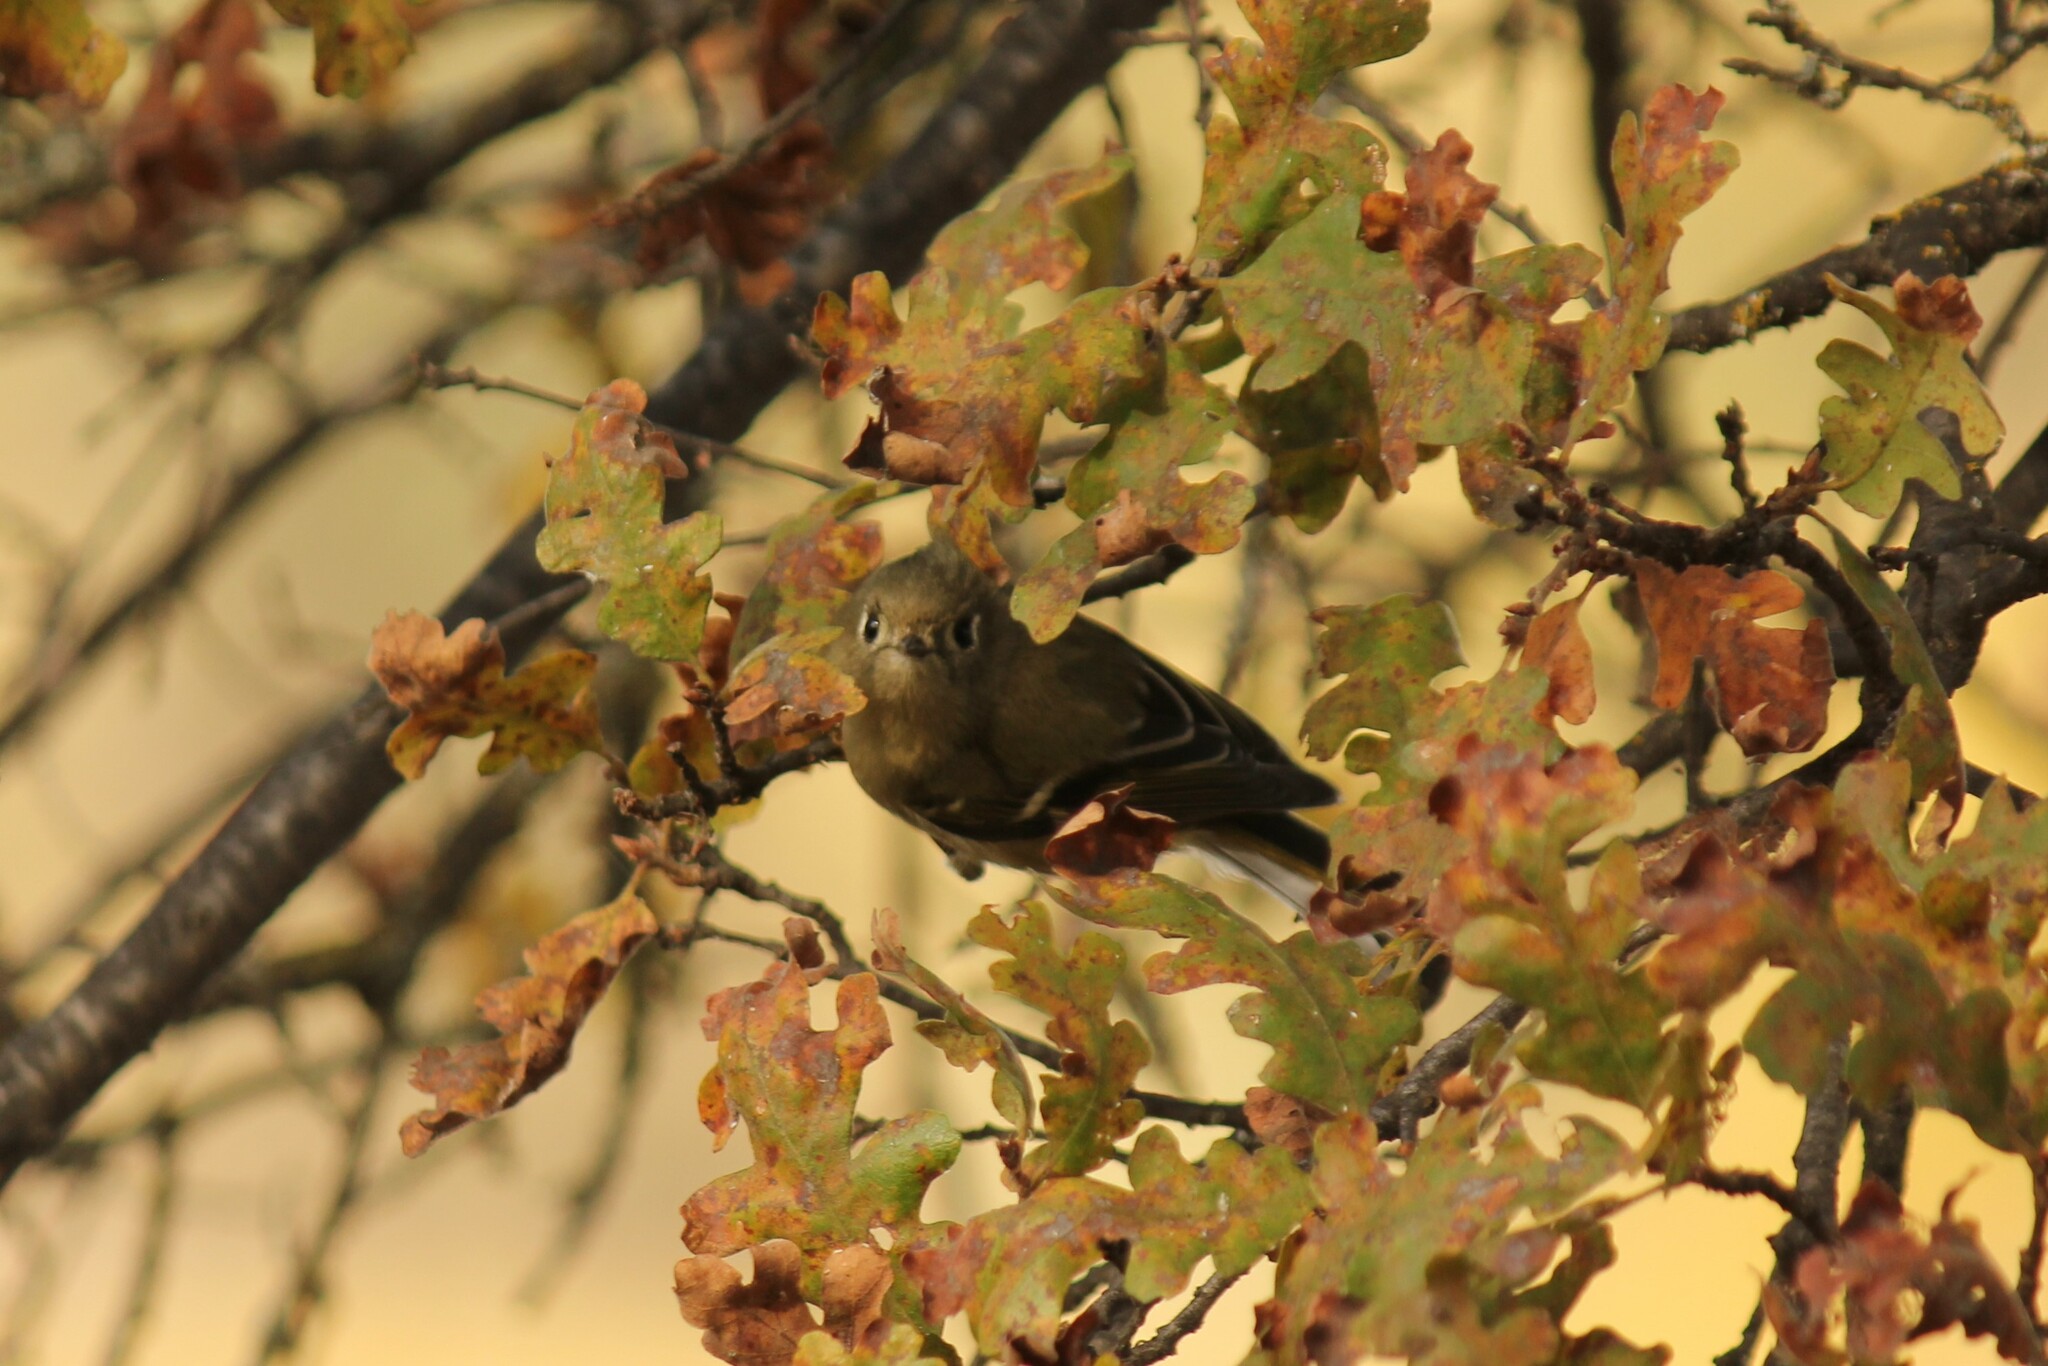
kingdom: Animalia
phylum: Chordata
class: Aves
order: Passeriformes
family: Regulidae
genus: Regulus
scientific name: Regulus calendula
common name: Ruby-crowned kinglet
